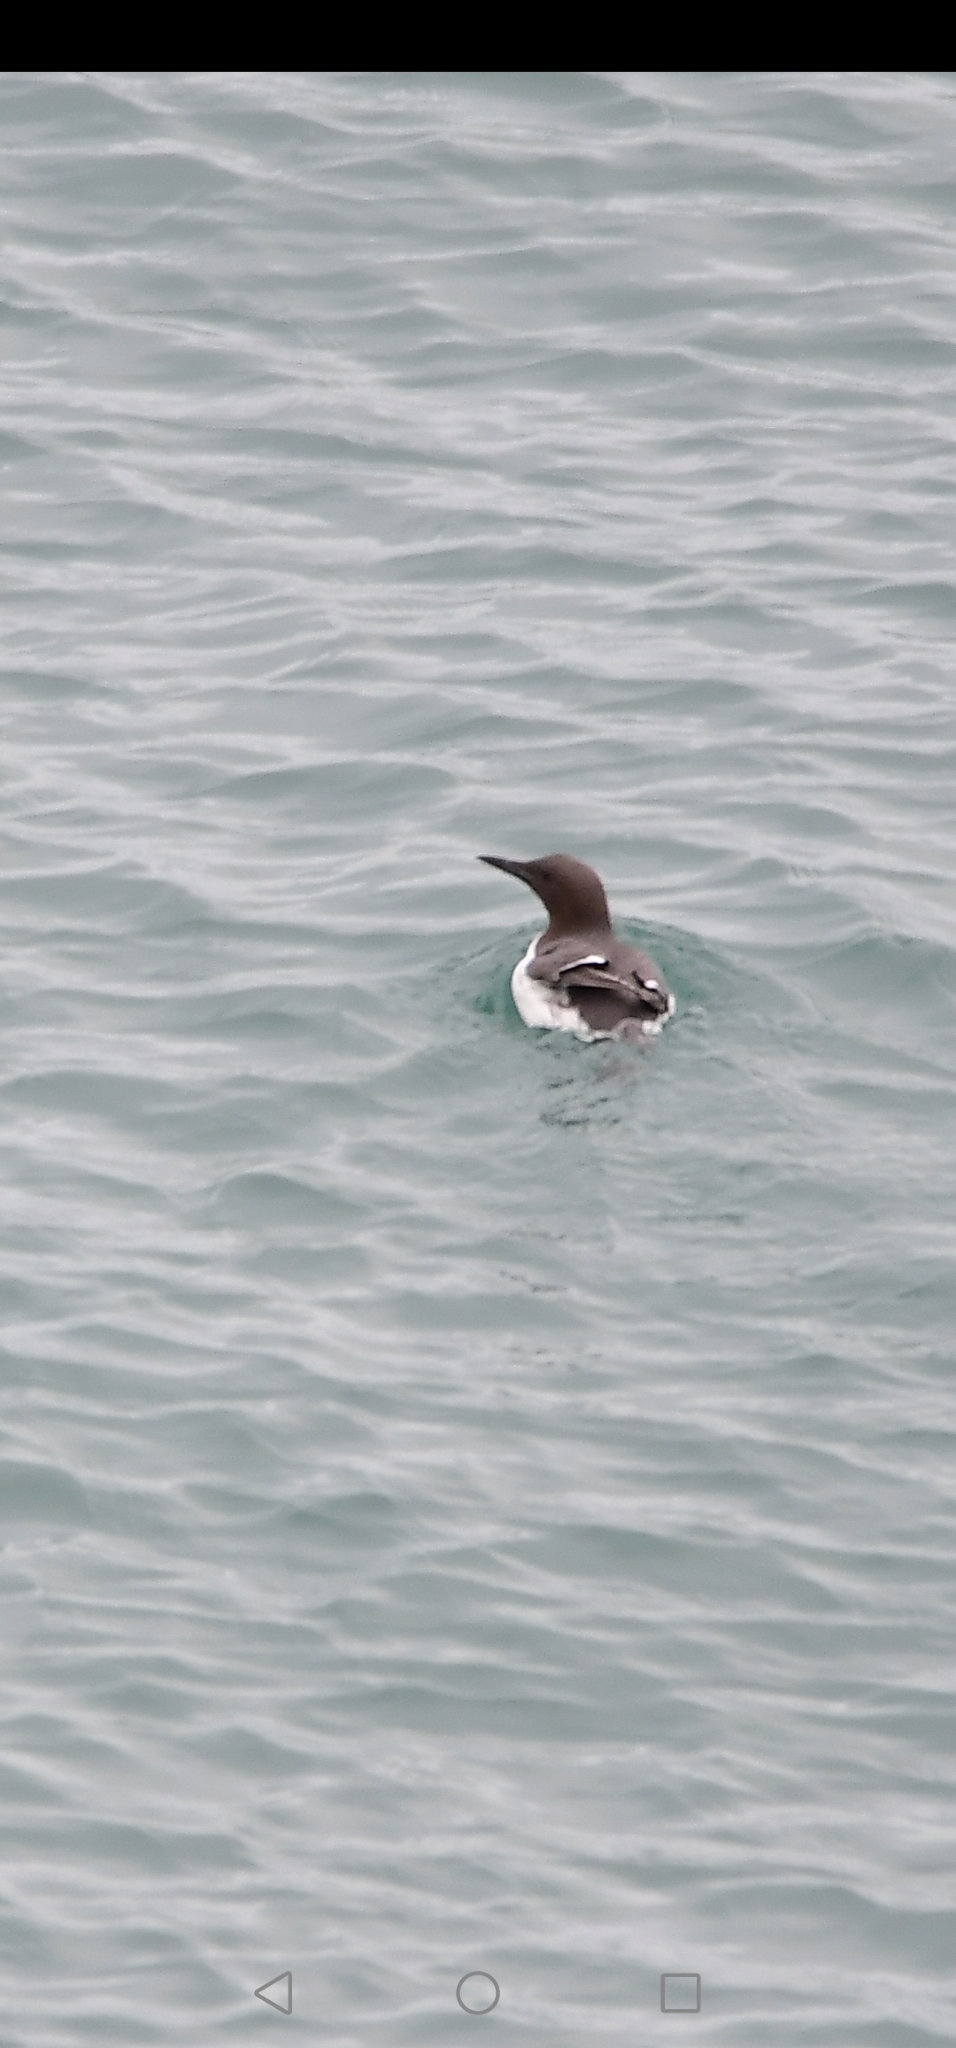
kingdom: Animalia
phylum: Chordata
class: Aves
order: Charadriiformes
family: Alcidae
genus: Uria
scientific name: Uria aalge
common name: Common murre
